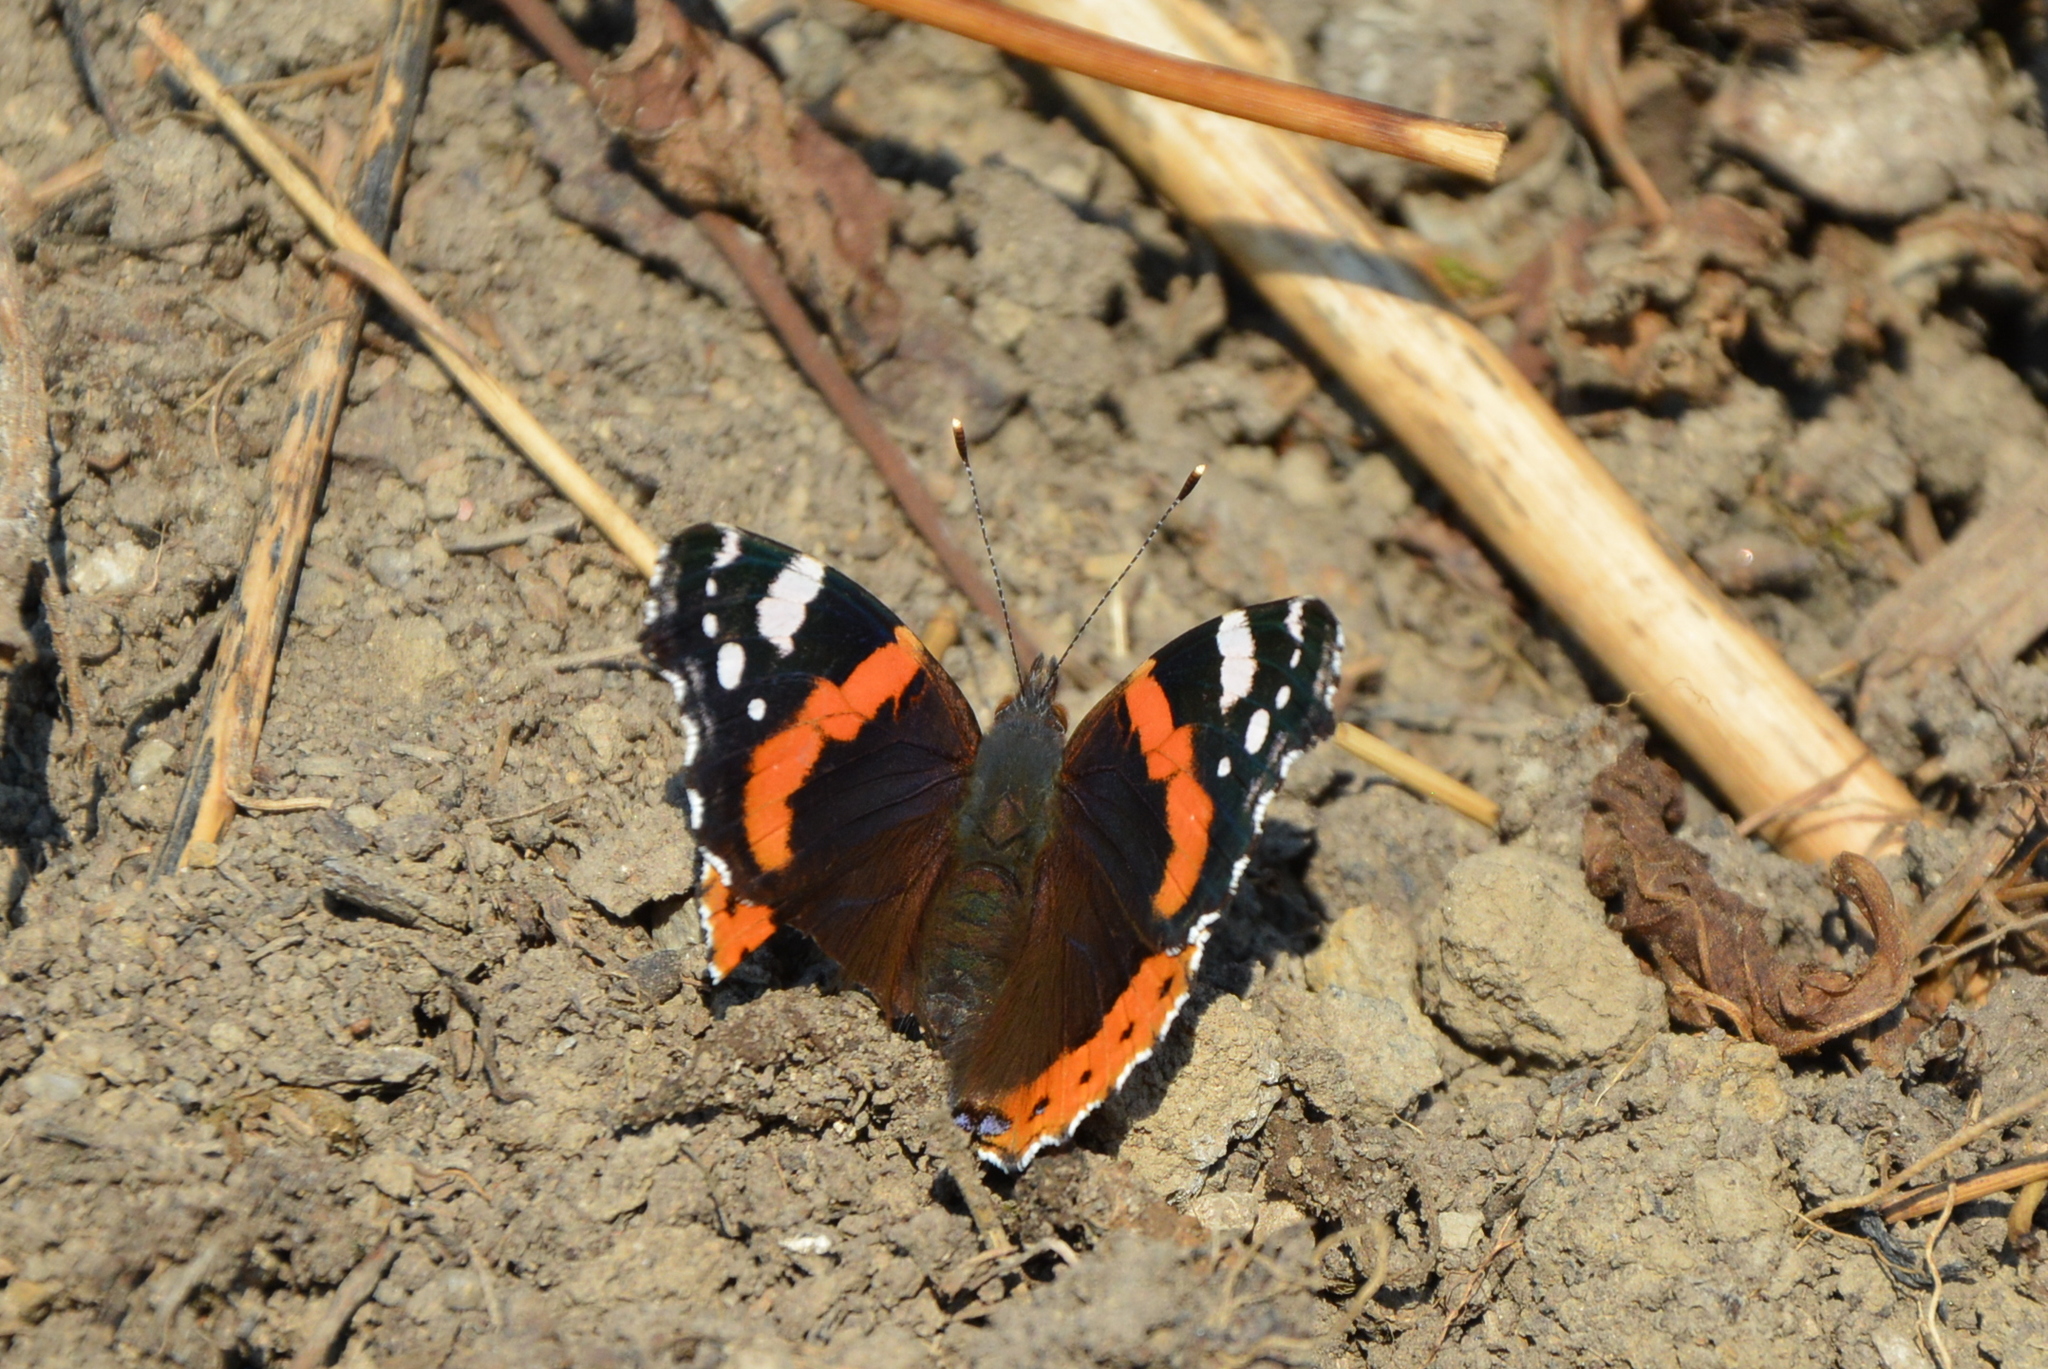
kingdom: Animalia
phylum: Arthropoda
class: Insecta
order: Lepidoptera
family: Nymphalidae
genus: Vanessa
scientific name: Vanessa atalanta
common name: Red admiral
